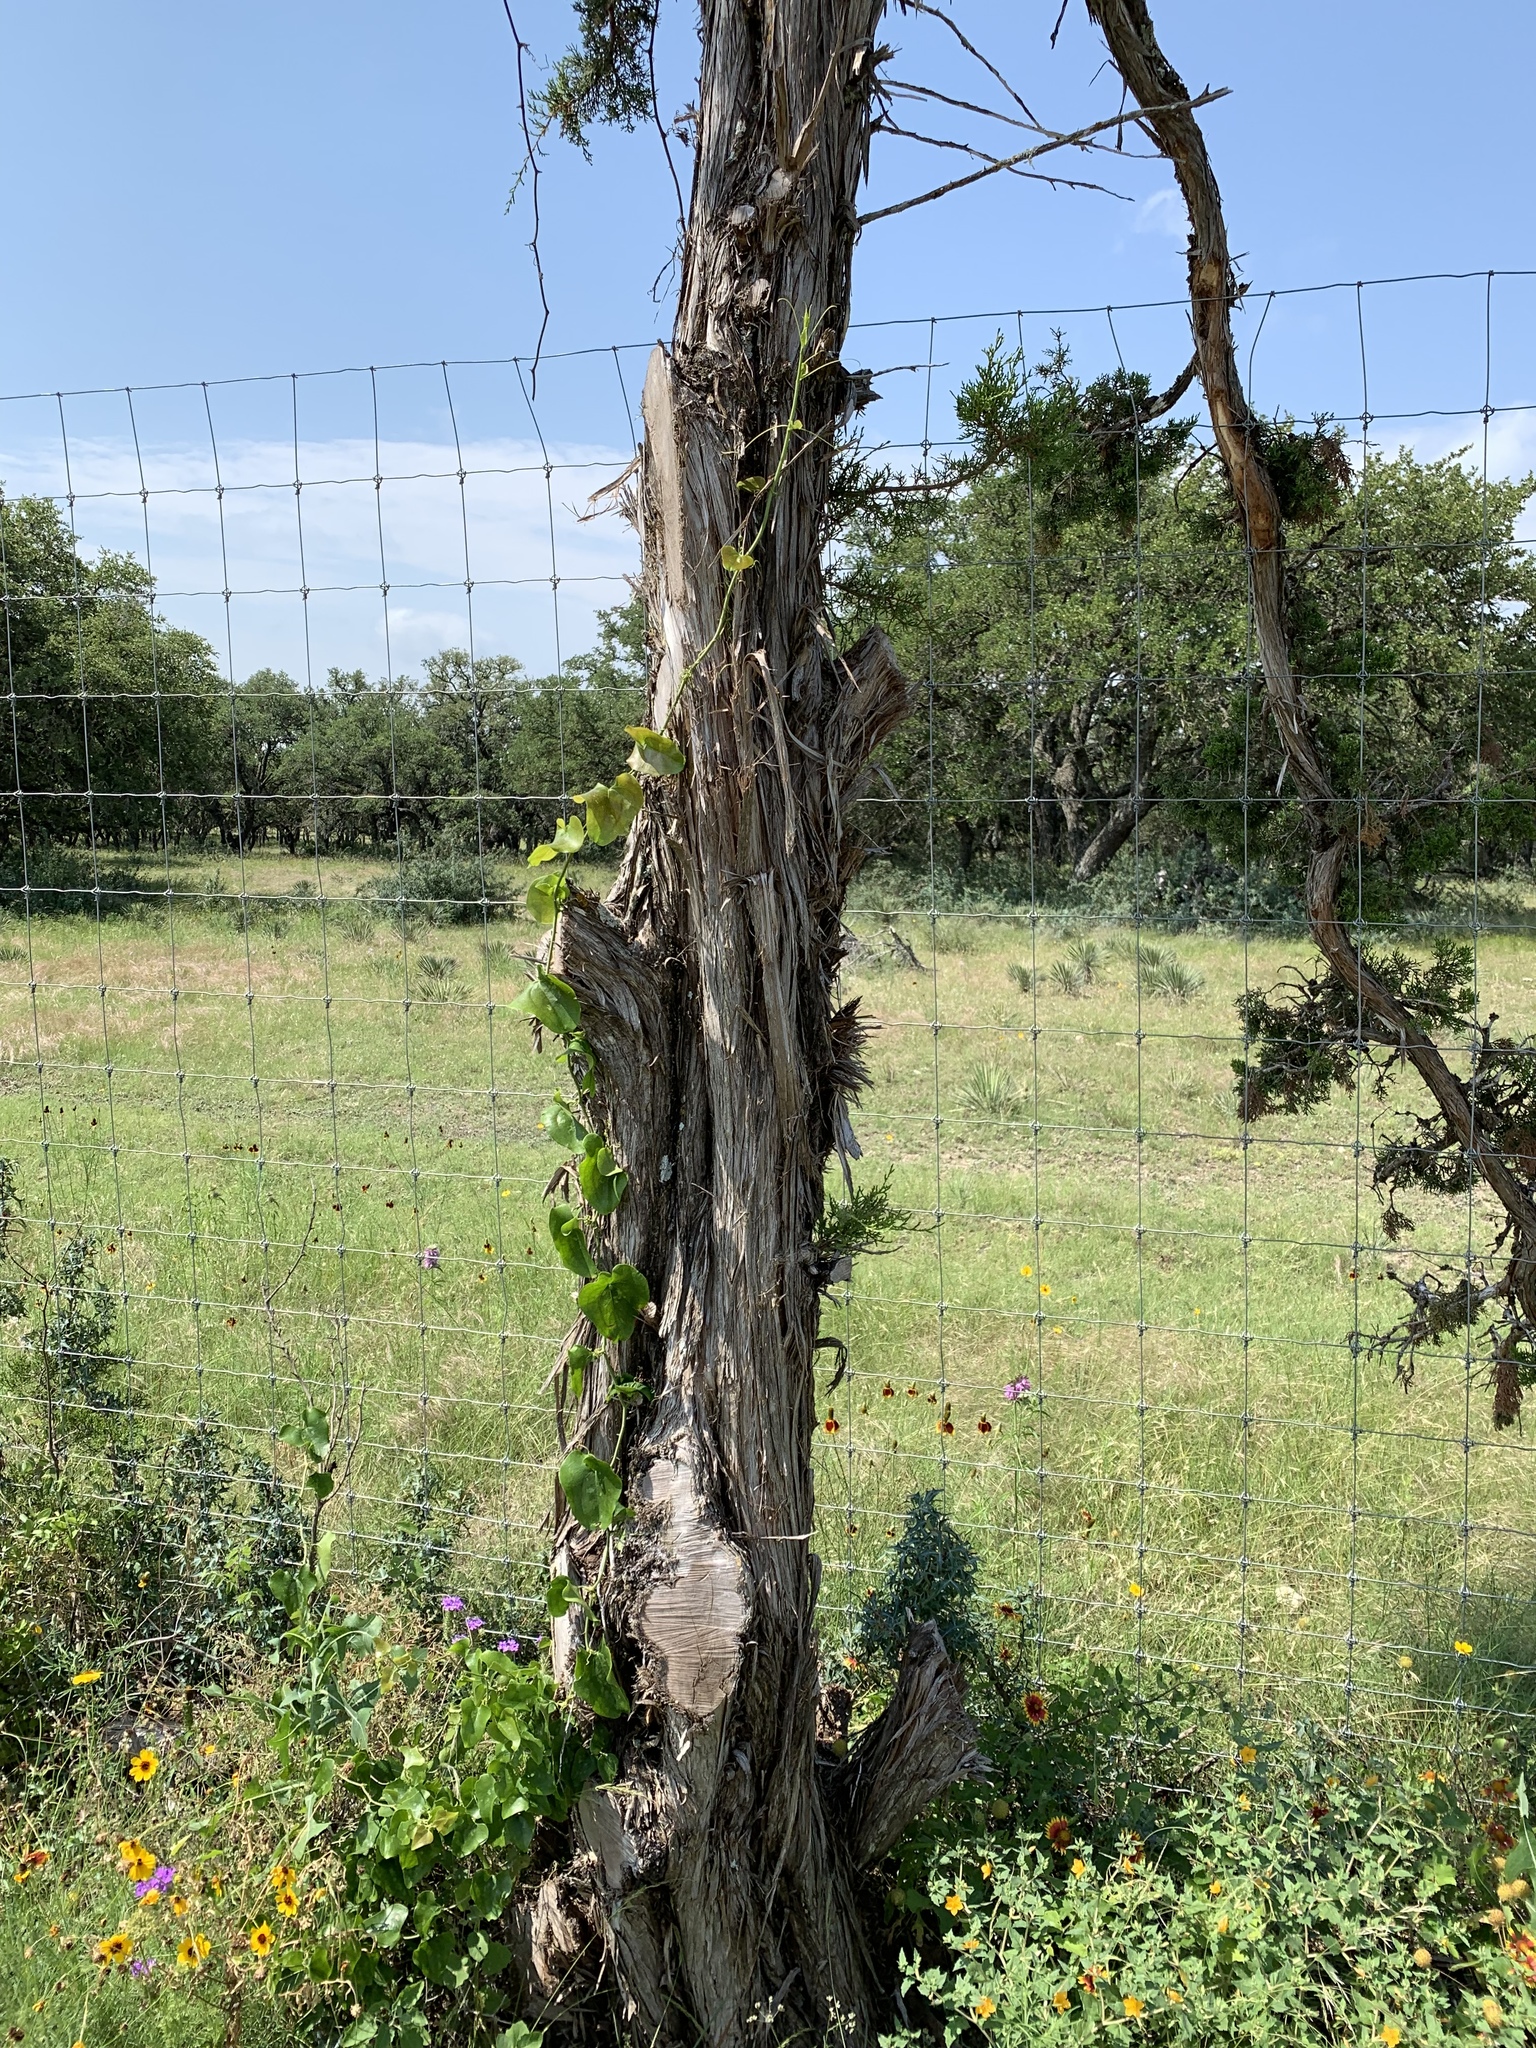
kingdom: Plantae
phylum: Tracheophyta
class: Pinopsida
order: Pinales
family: Cupressaceae
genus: Juniperus
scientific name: Juniperus ashei
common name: Mexican juniper
